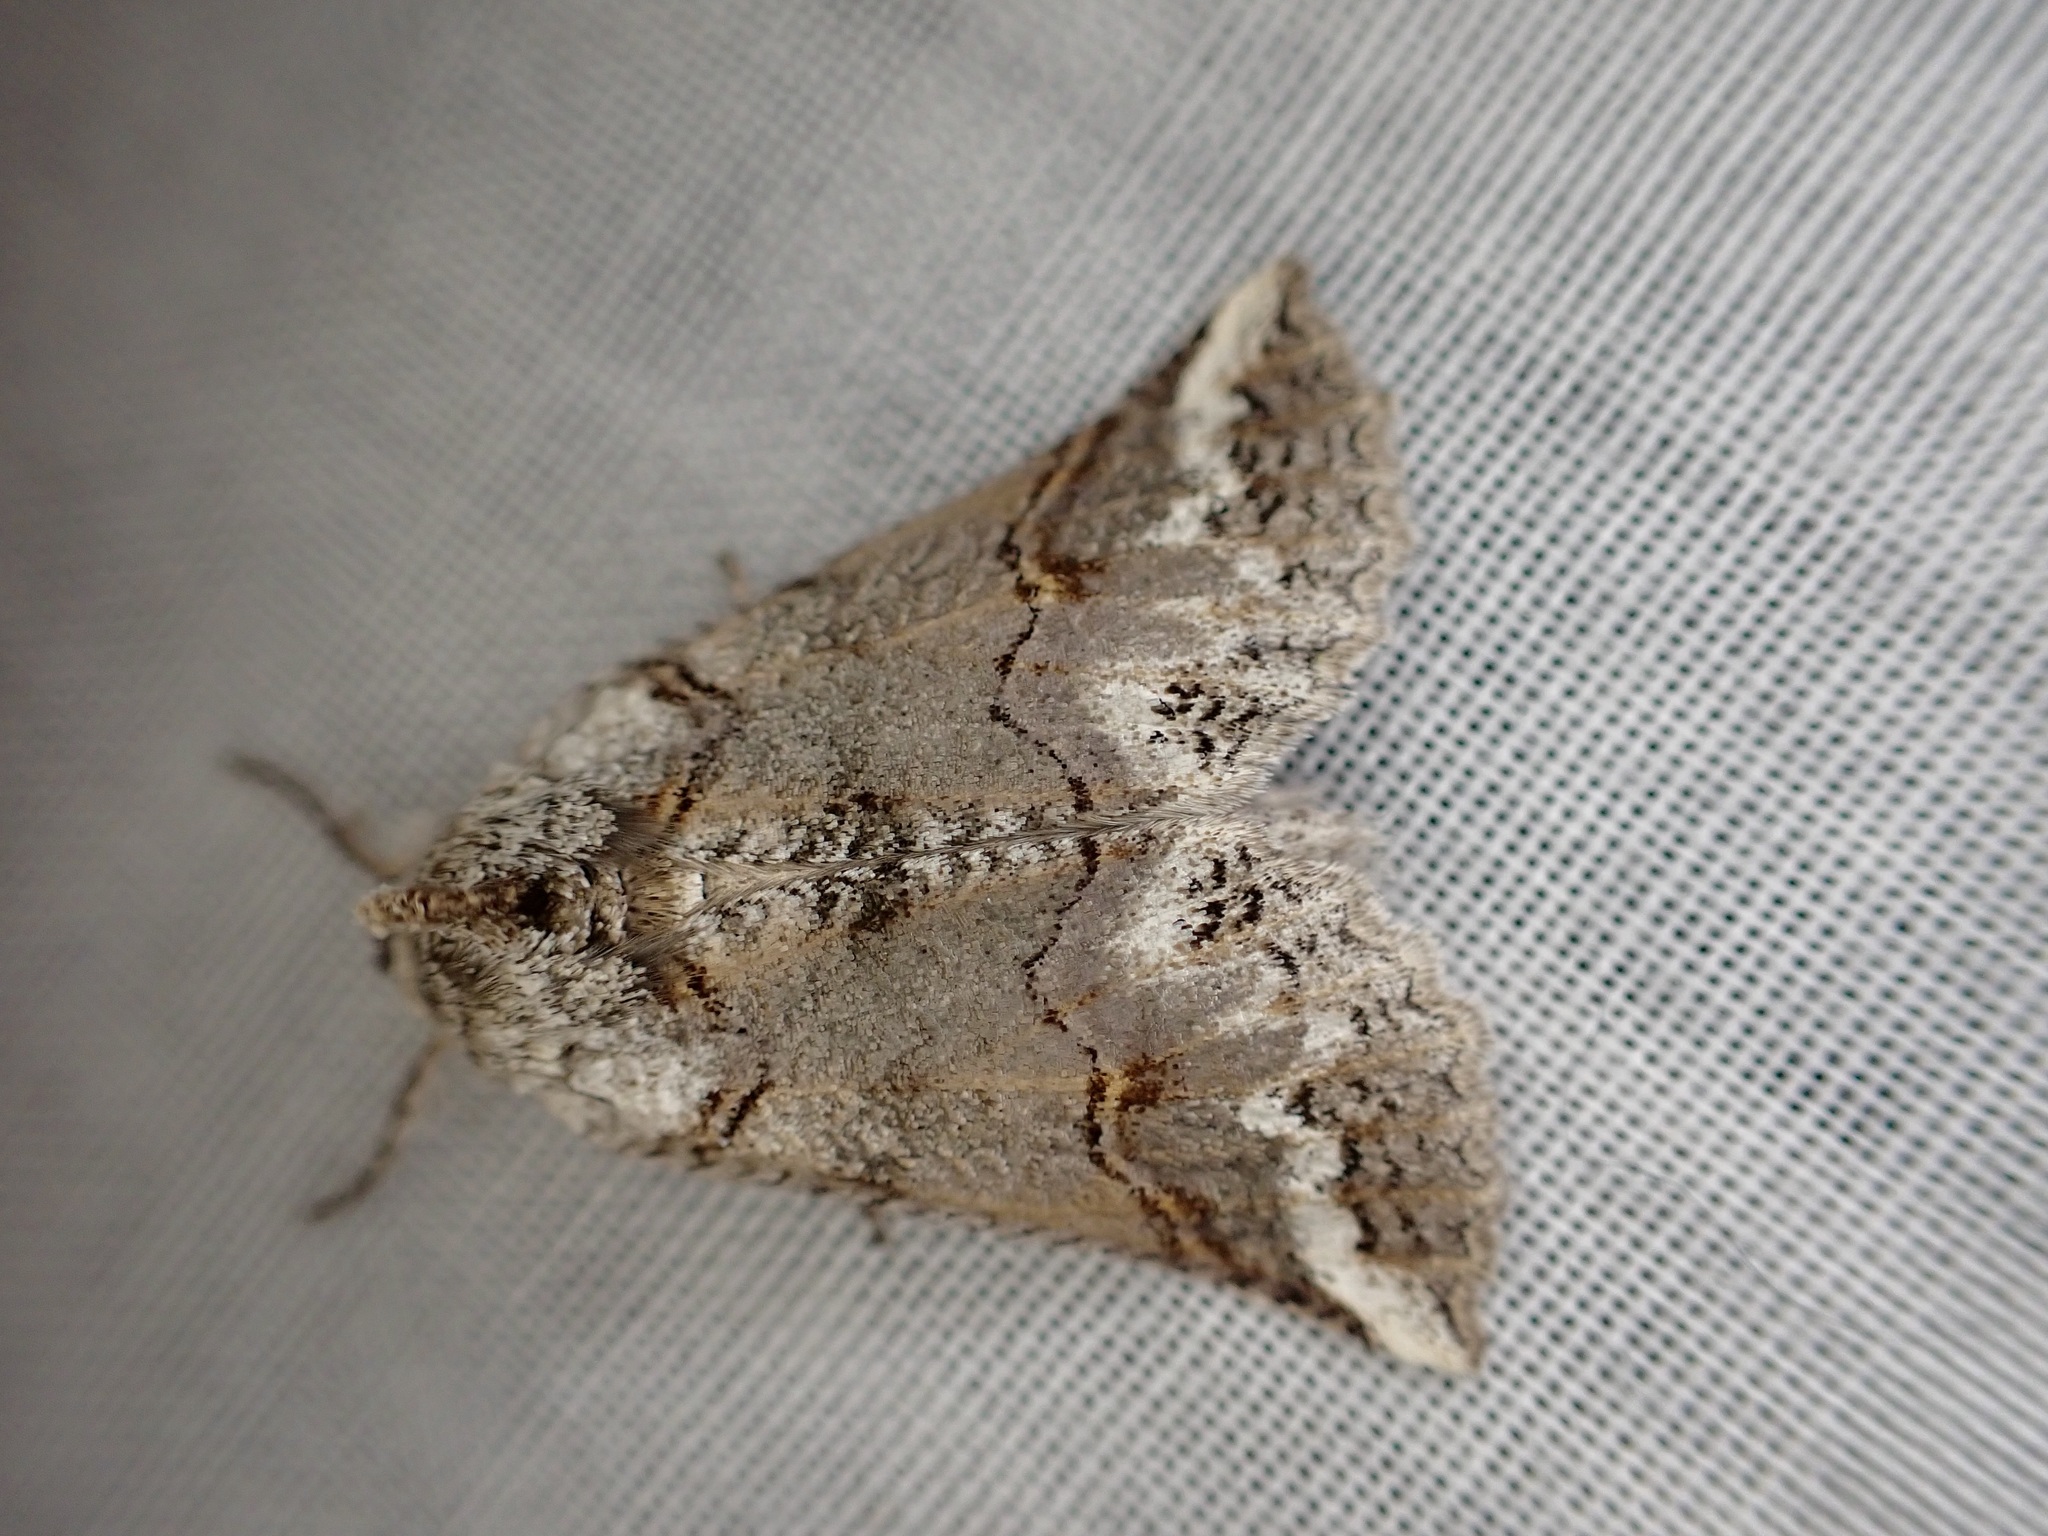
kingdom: Animalia
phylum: Arthropoda
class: Insecta
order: Lepidoptera
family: Geometridae
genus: Declana
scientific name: Declana
